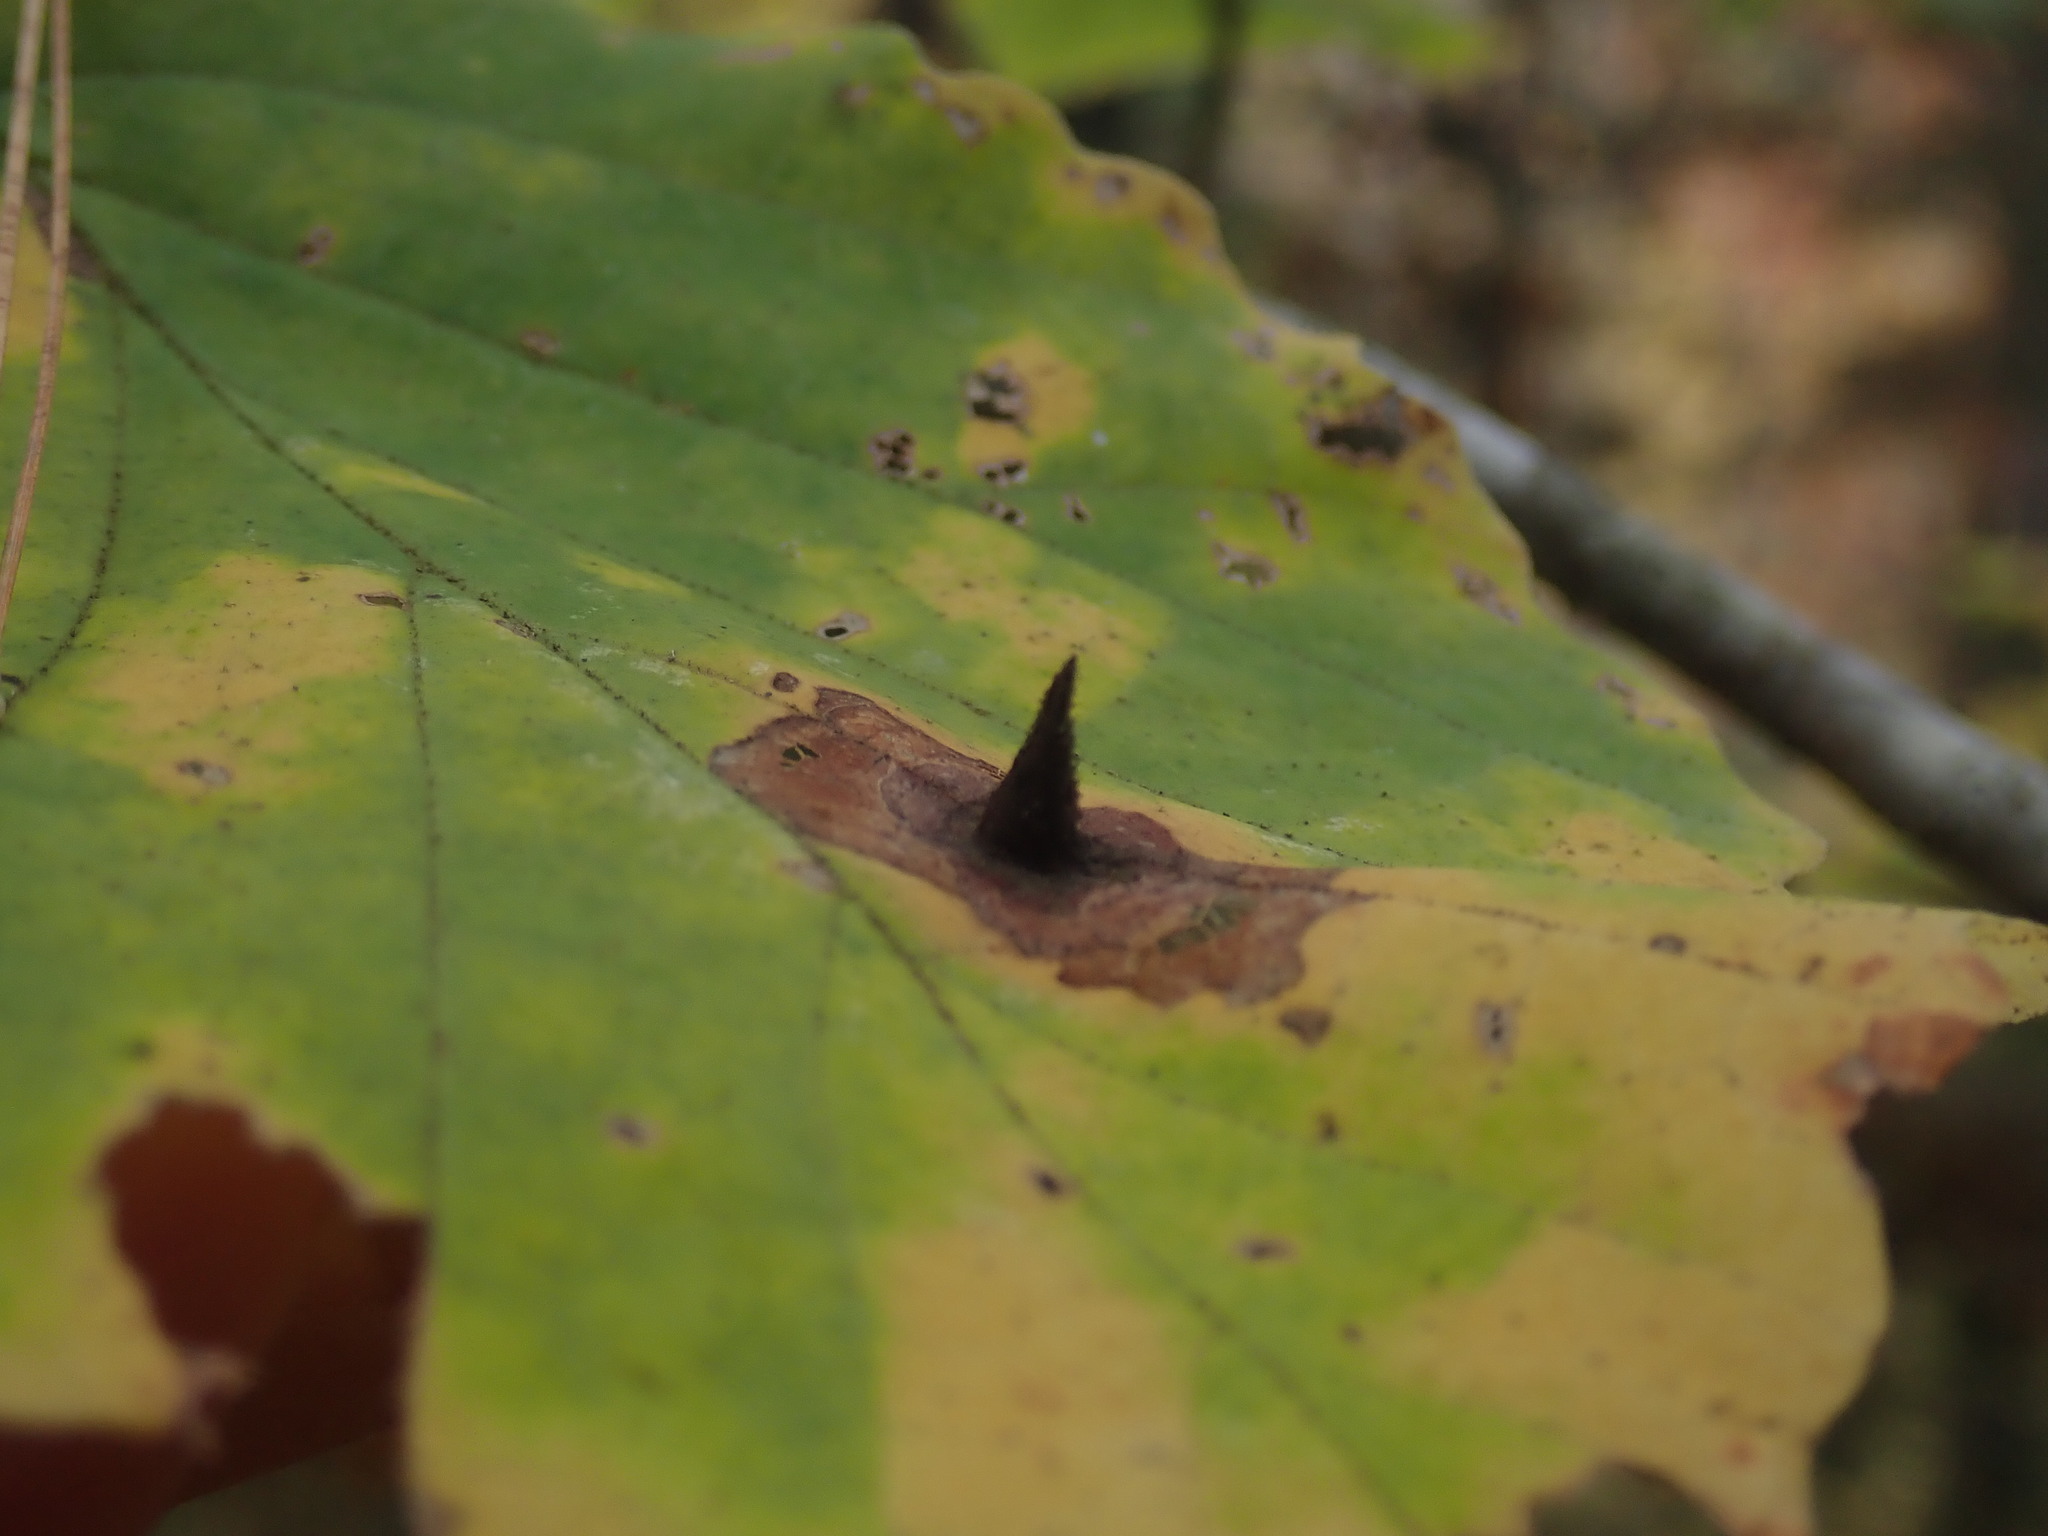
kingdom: Animalia
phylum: Arthropoda
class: Insecta
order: Hemiptera
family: Aphididae
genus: Hormaphis
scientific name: Hormaphis hamamelidis
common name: Witch-hazel cone gall aphid
